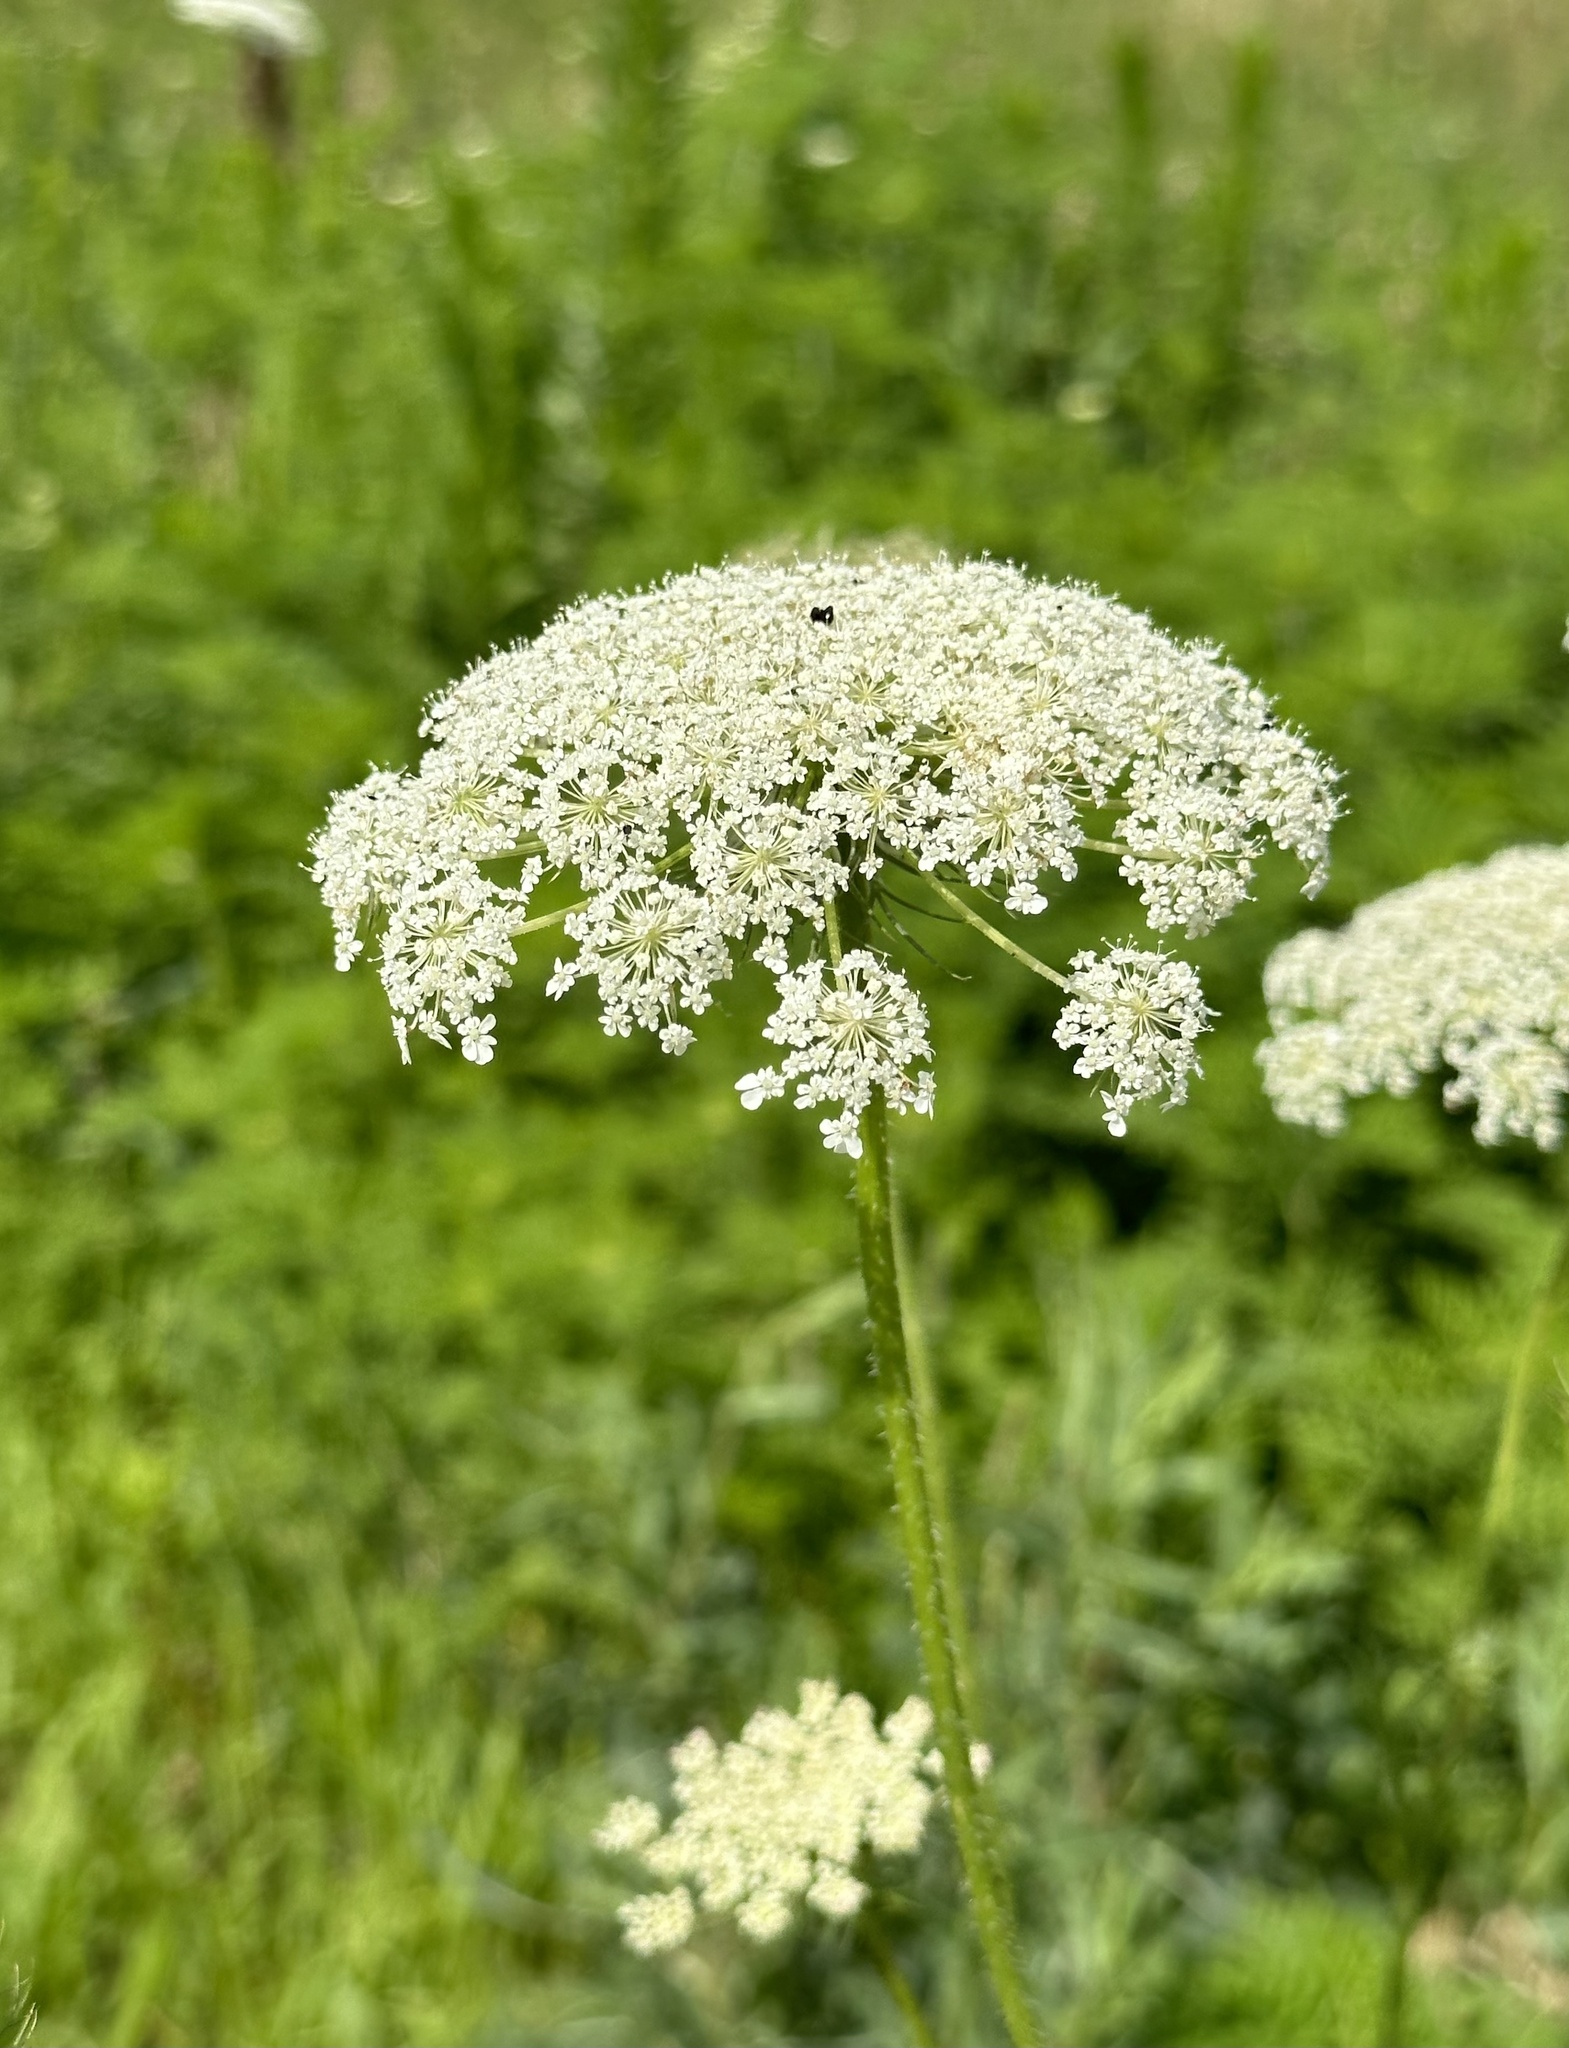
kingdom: Plantae
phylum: Tracheophyta
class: Magnoliopsida
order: Apiales
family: Apiaceae
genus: Daucus
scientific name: Daucus carota
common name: Wild carrot
